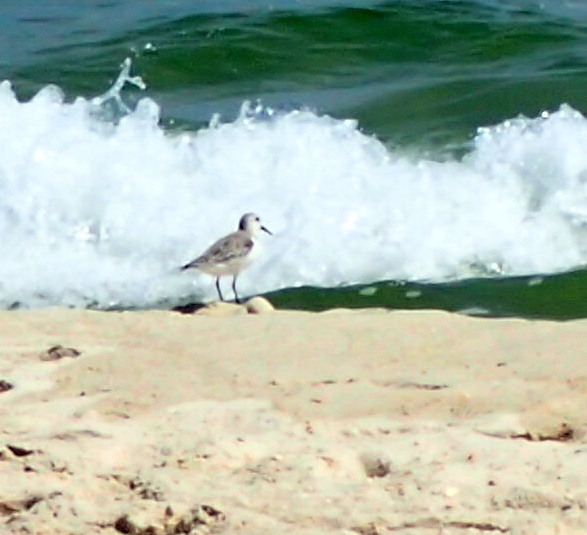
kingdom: Animalia
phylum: Chordata
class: Aves
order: Charadriiformes
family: Scolopacidae
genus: Calidris
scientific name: Calidris alba
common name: Sanderling
